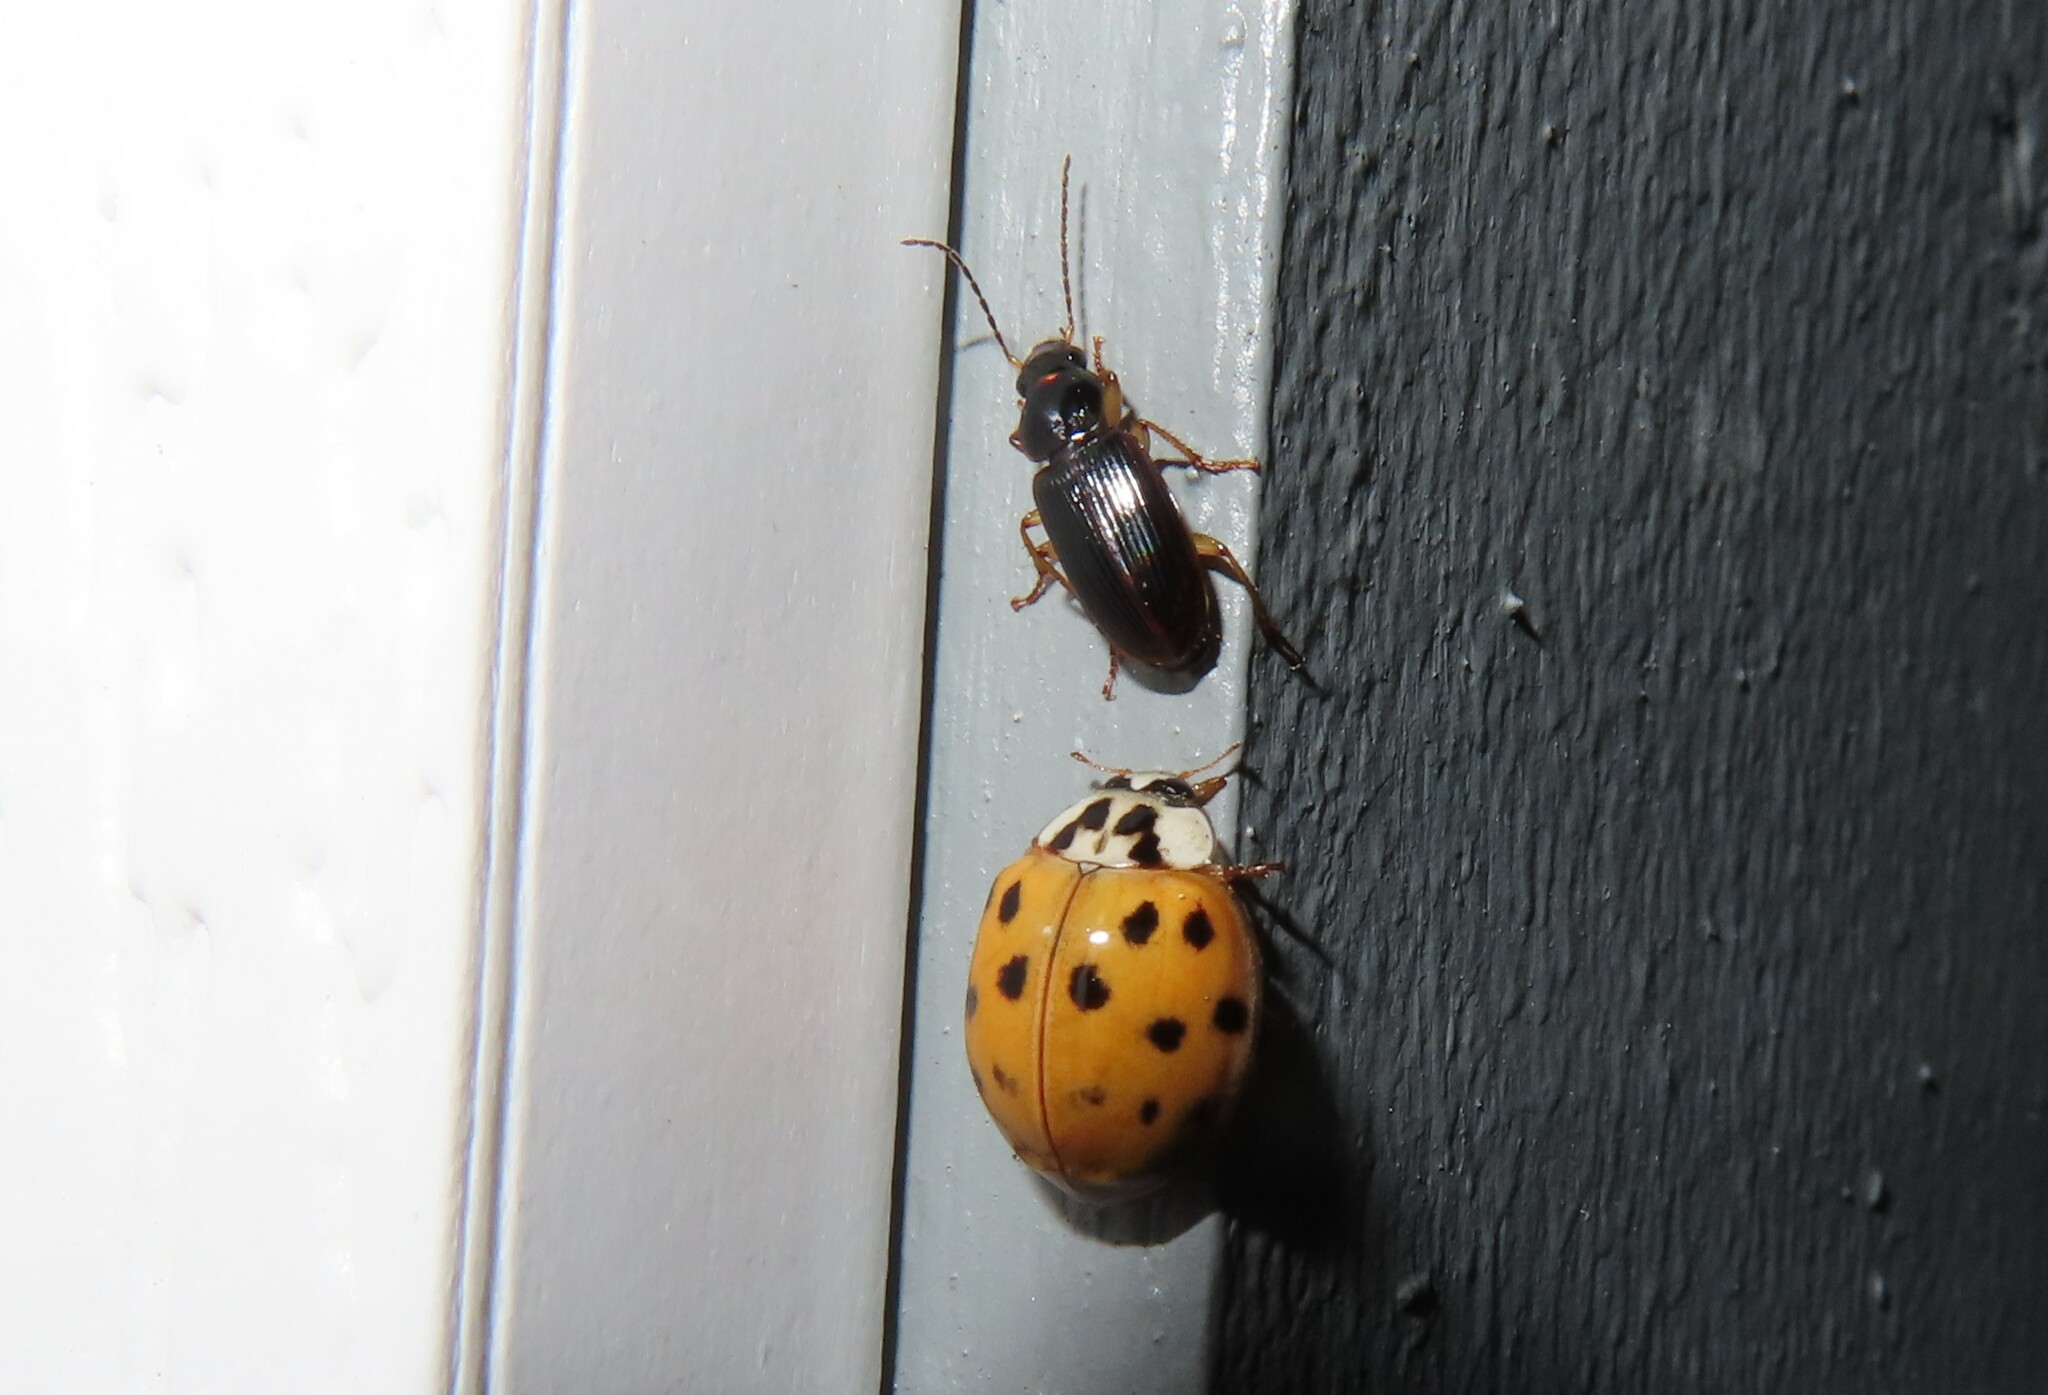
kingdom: Animalia
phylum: Arthropoda
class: Insecta
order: Coleoptera
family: Carabidae
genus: Stenolophus
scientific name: Stenolophus ochropezus
